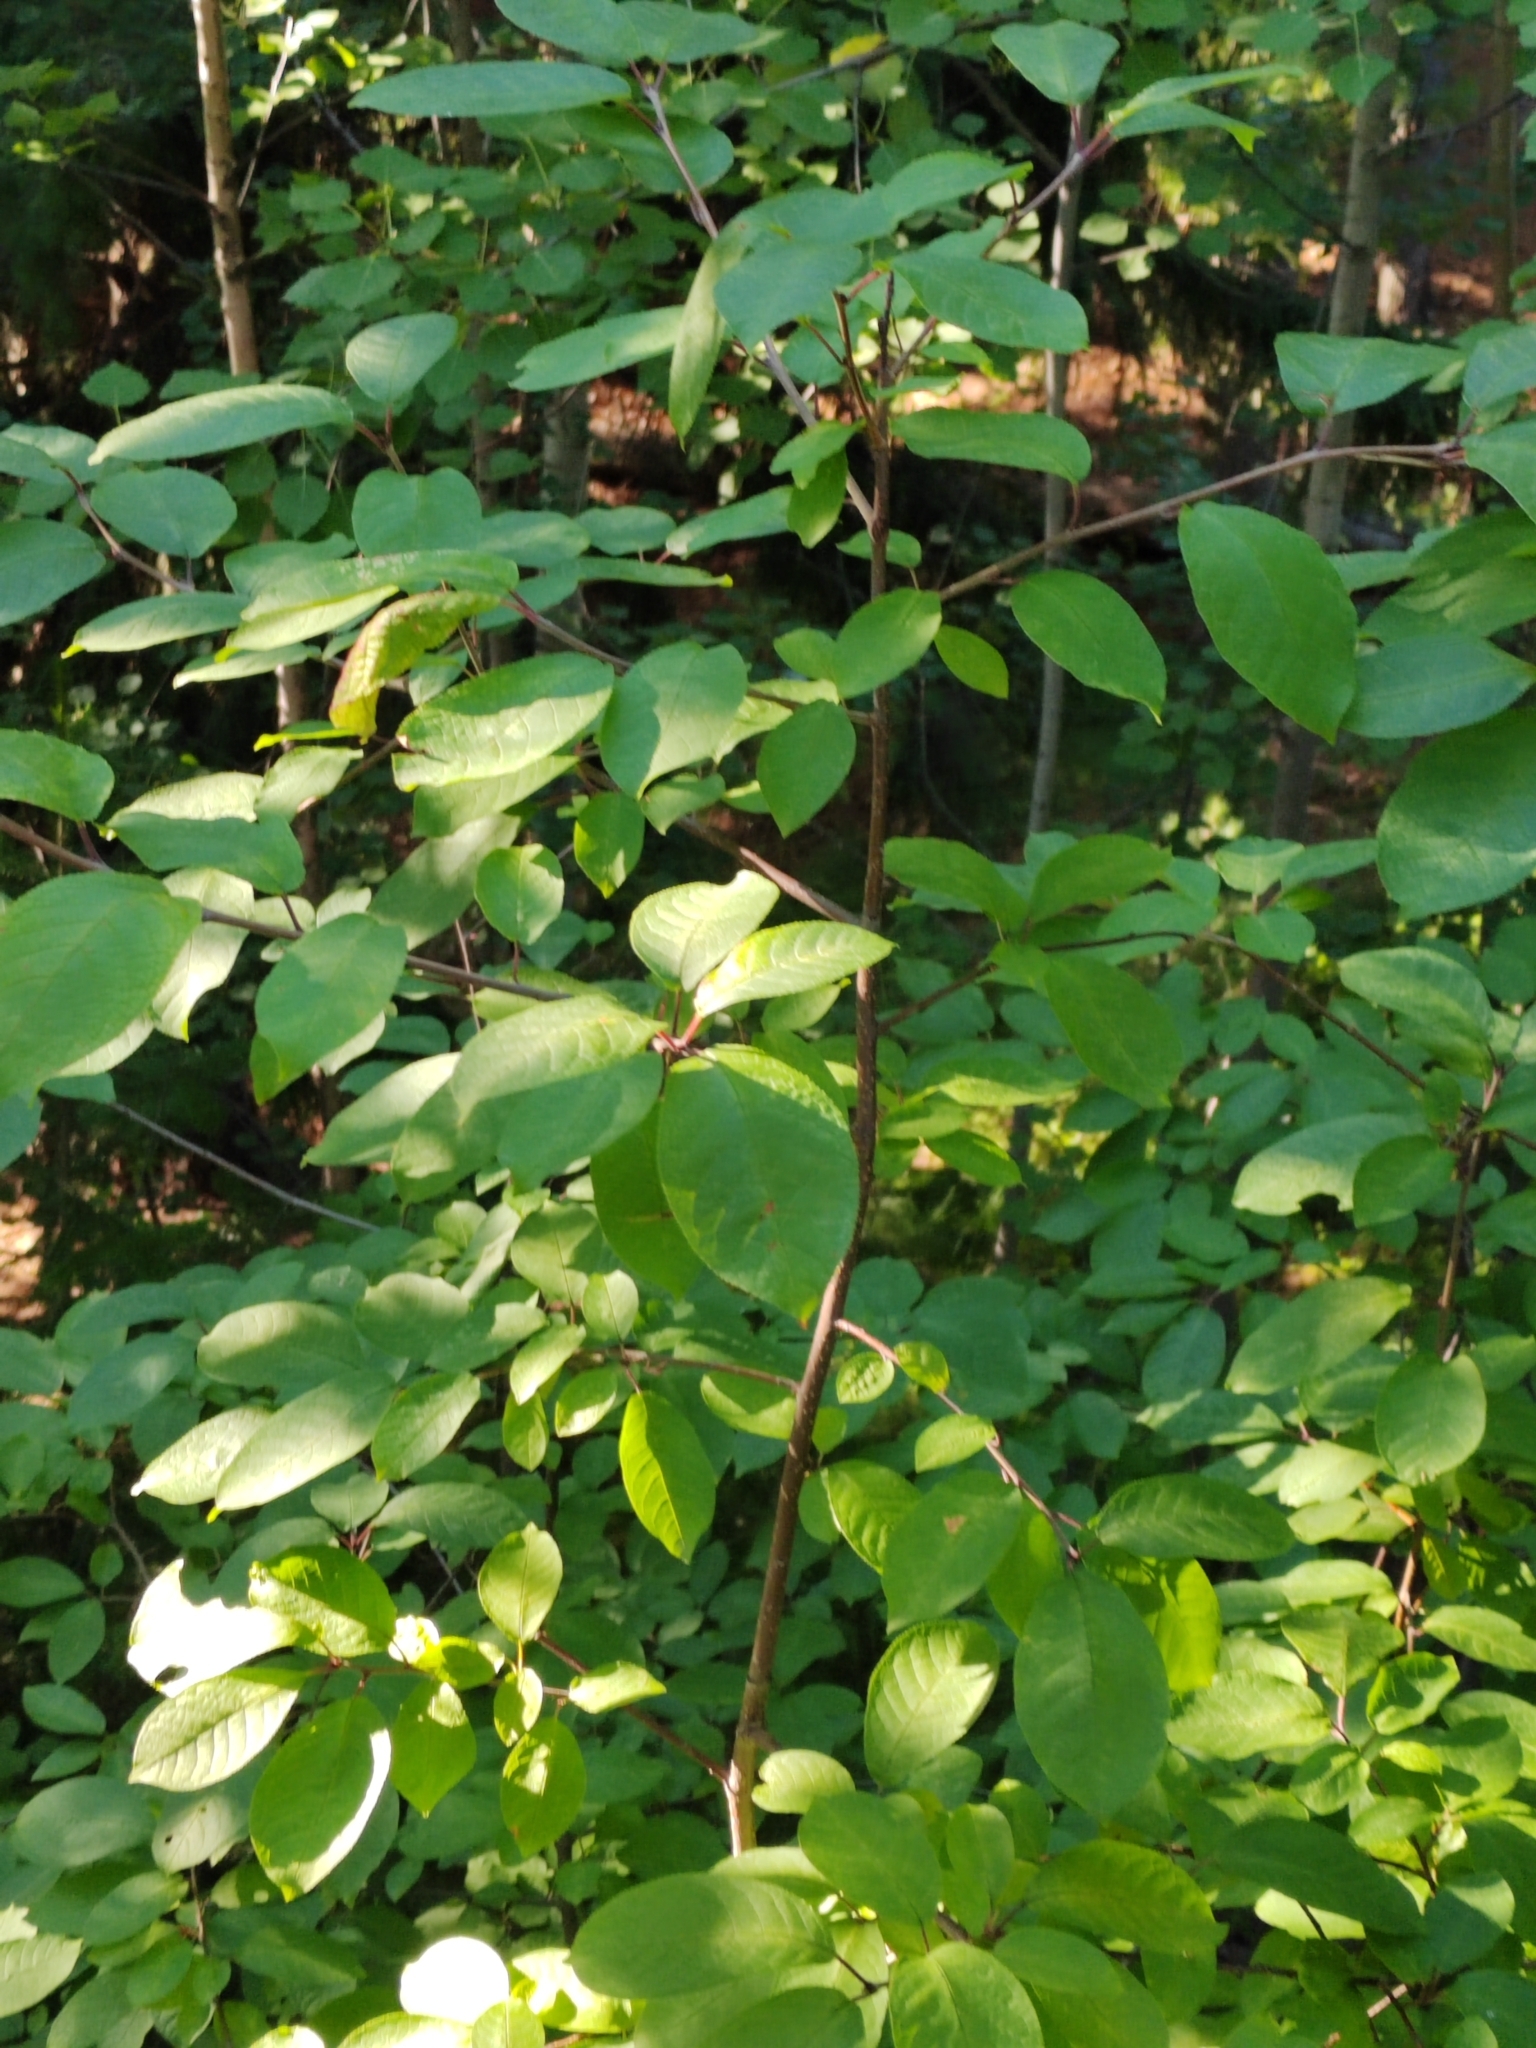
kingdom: Plantae
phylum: Tracheophyta
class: Magnoliopsida
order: Rosales
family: Rosaceae
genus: Prunus
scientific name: Prunus padus
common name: Bird cherry
